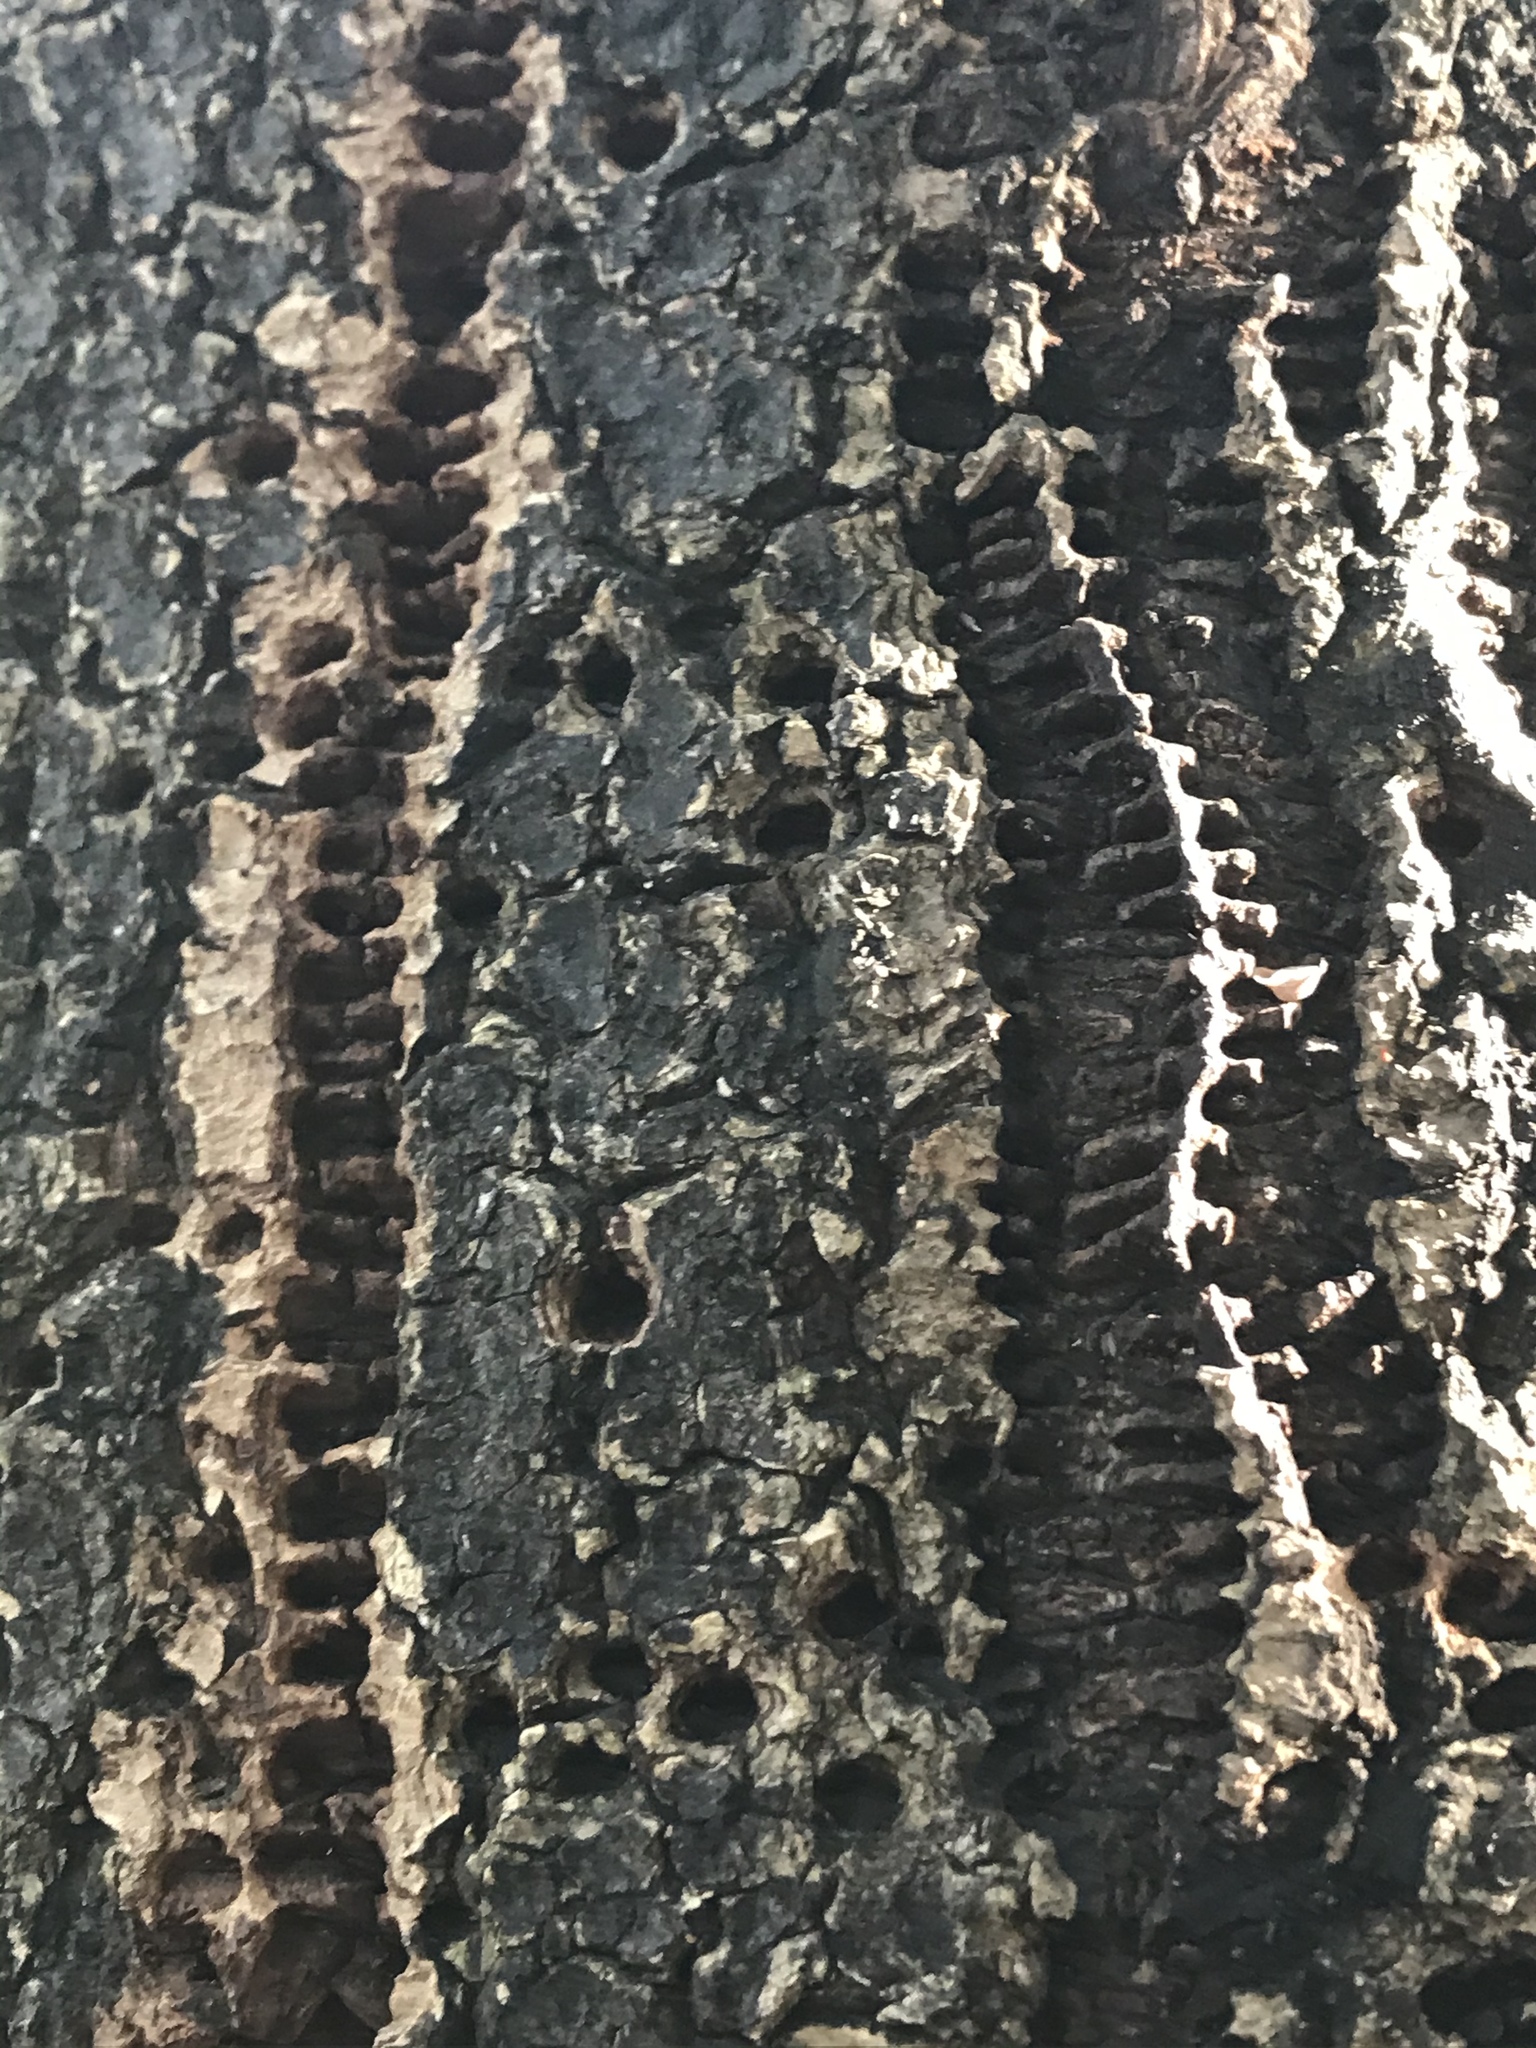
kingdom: Animalia
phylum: Chordata
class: Aves
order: Piciformes
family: Picidae
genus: Sphyrapicus
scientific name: Sphyrapicus
